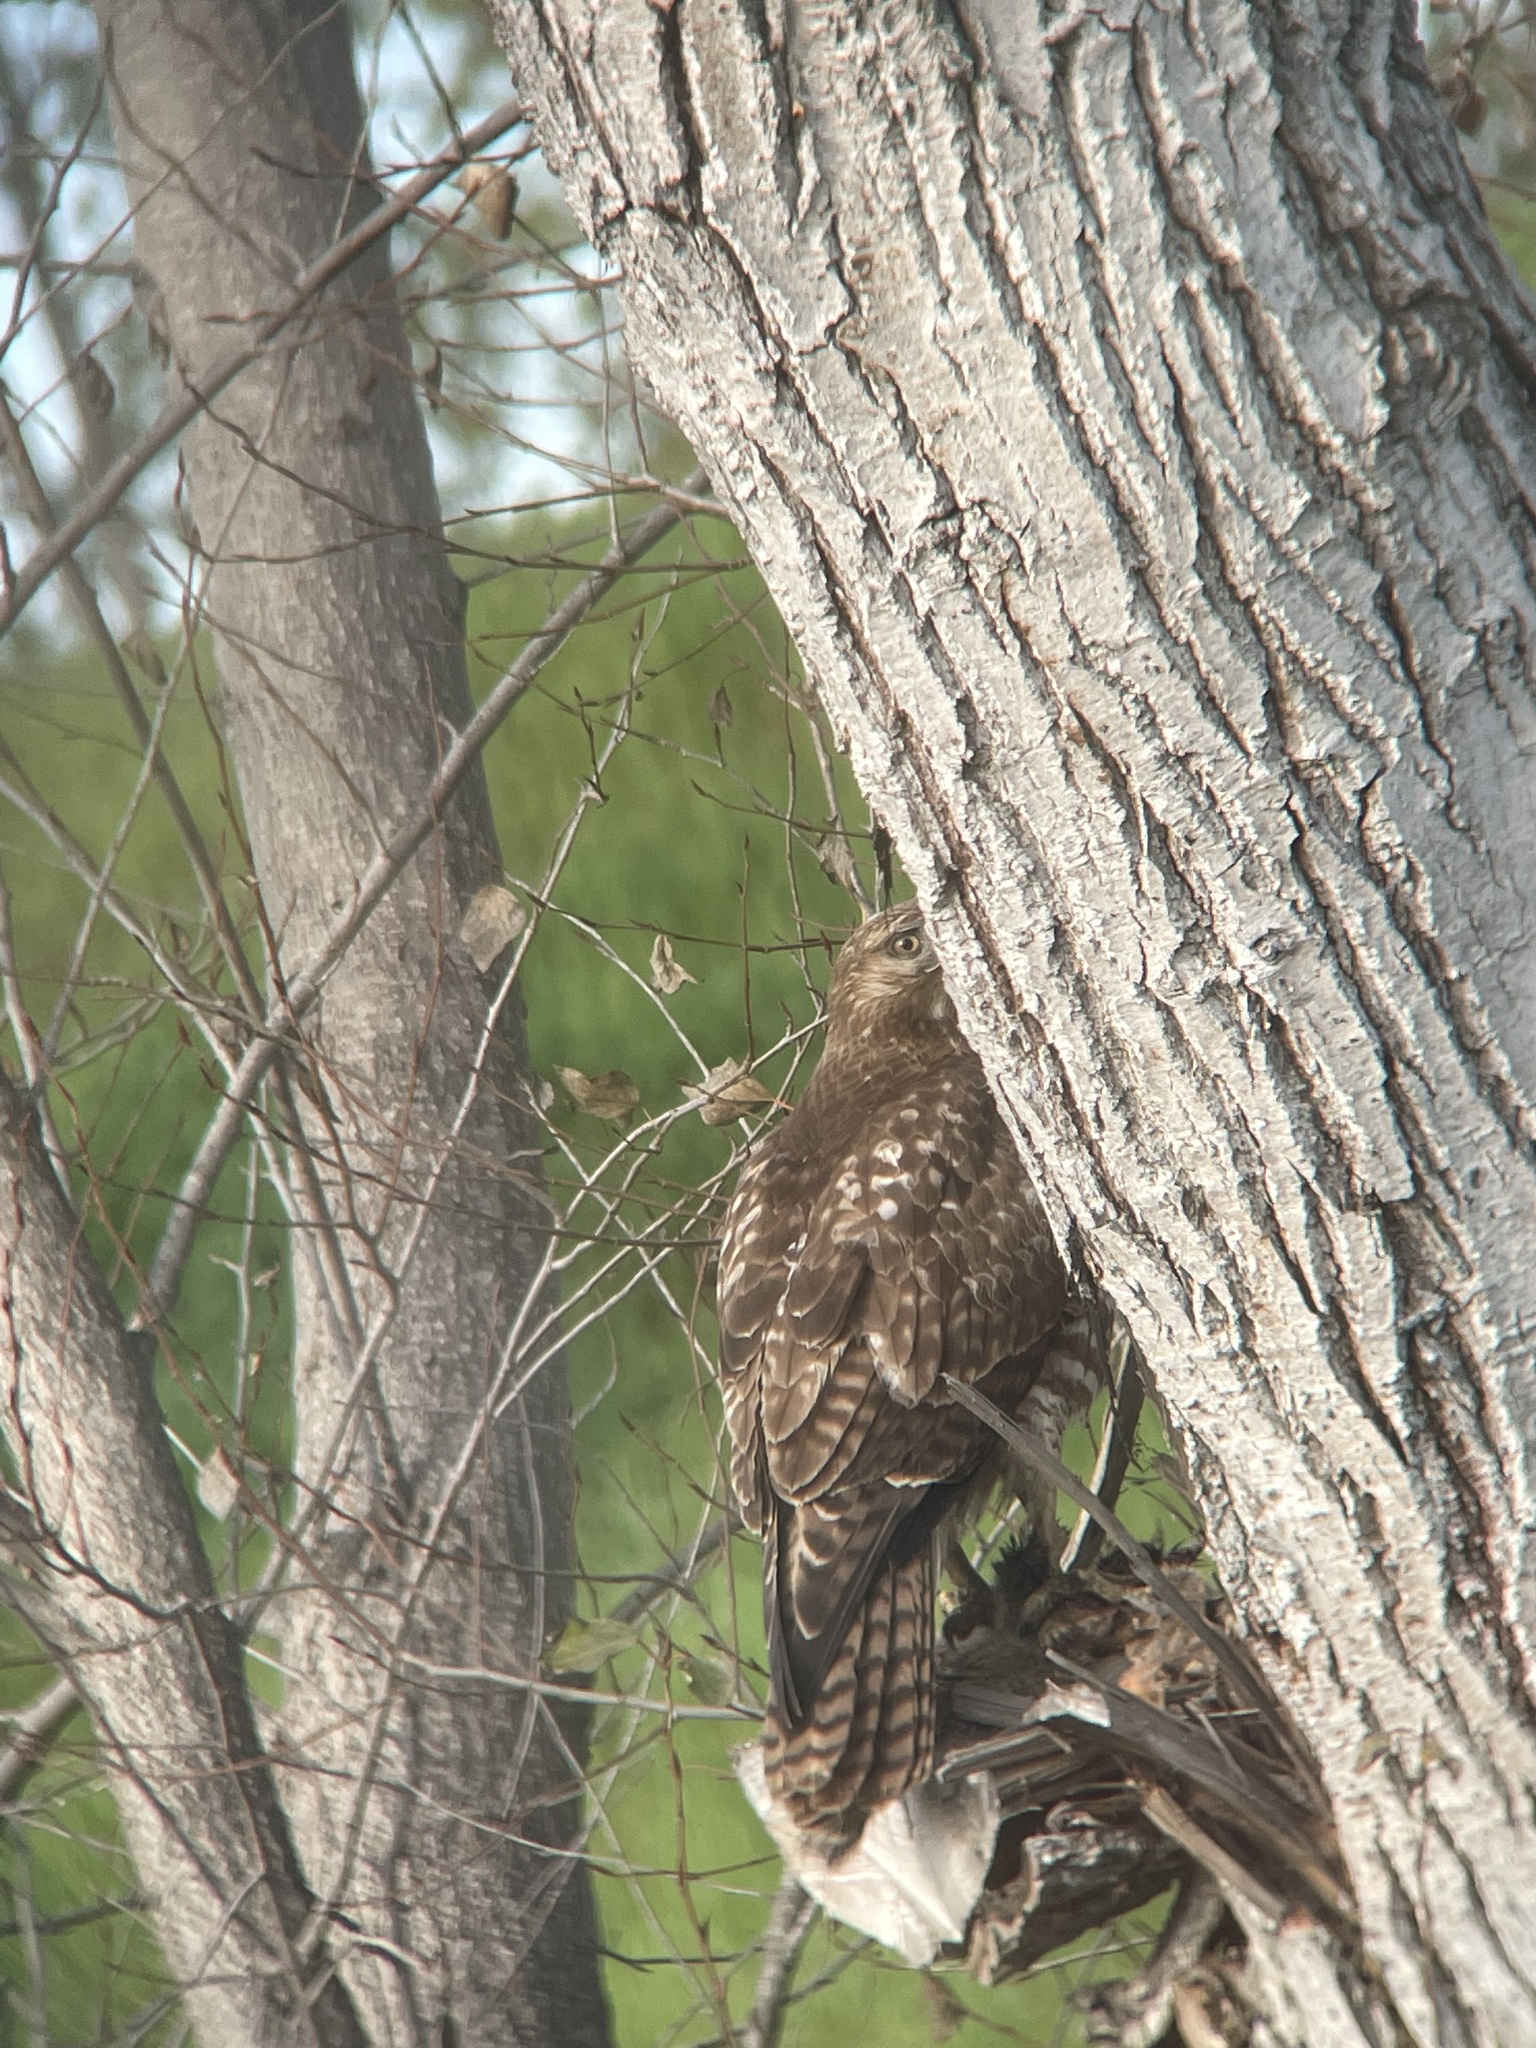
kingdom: Animalia
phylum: Chordata
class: Aves
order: Accipitriformes
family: Accipitridae
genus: Buteo
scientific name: Buteo jamaicensis
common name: Red-tailed hawk
